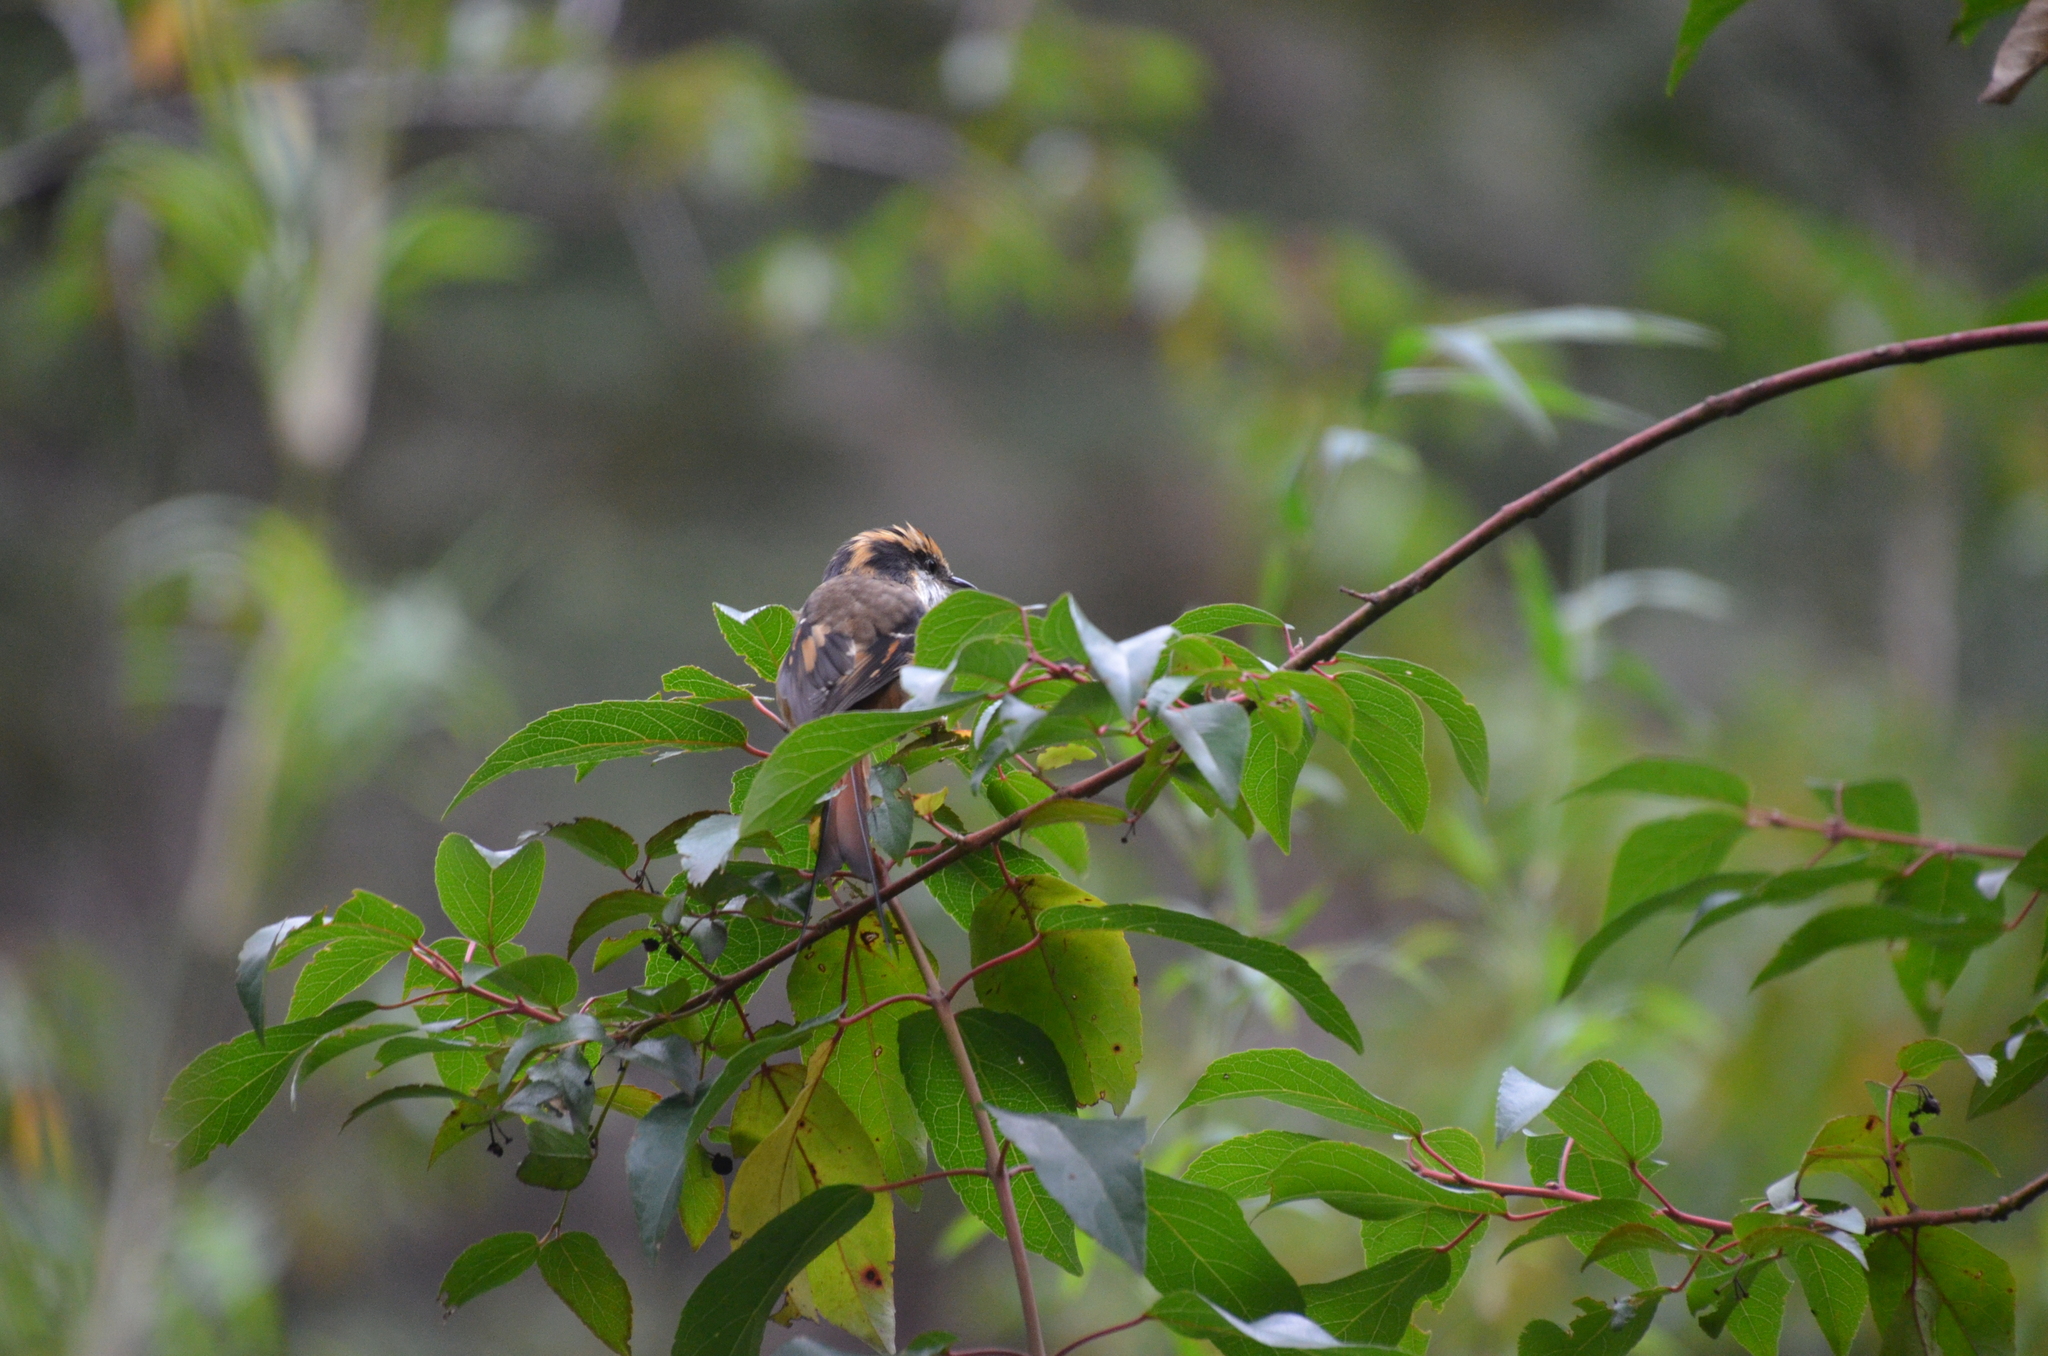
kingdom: Animalia
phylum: Chordata
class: Aves
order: Passeriformes
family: Furnariidae
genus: Aphrastura
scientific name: Aphrastura spinicauda
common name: Thorn-tailed rayadito
